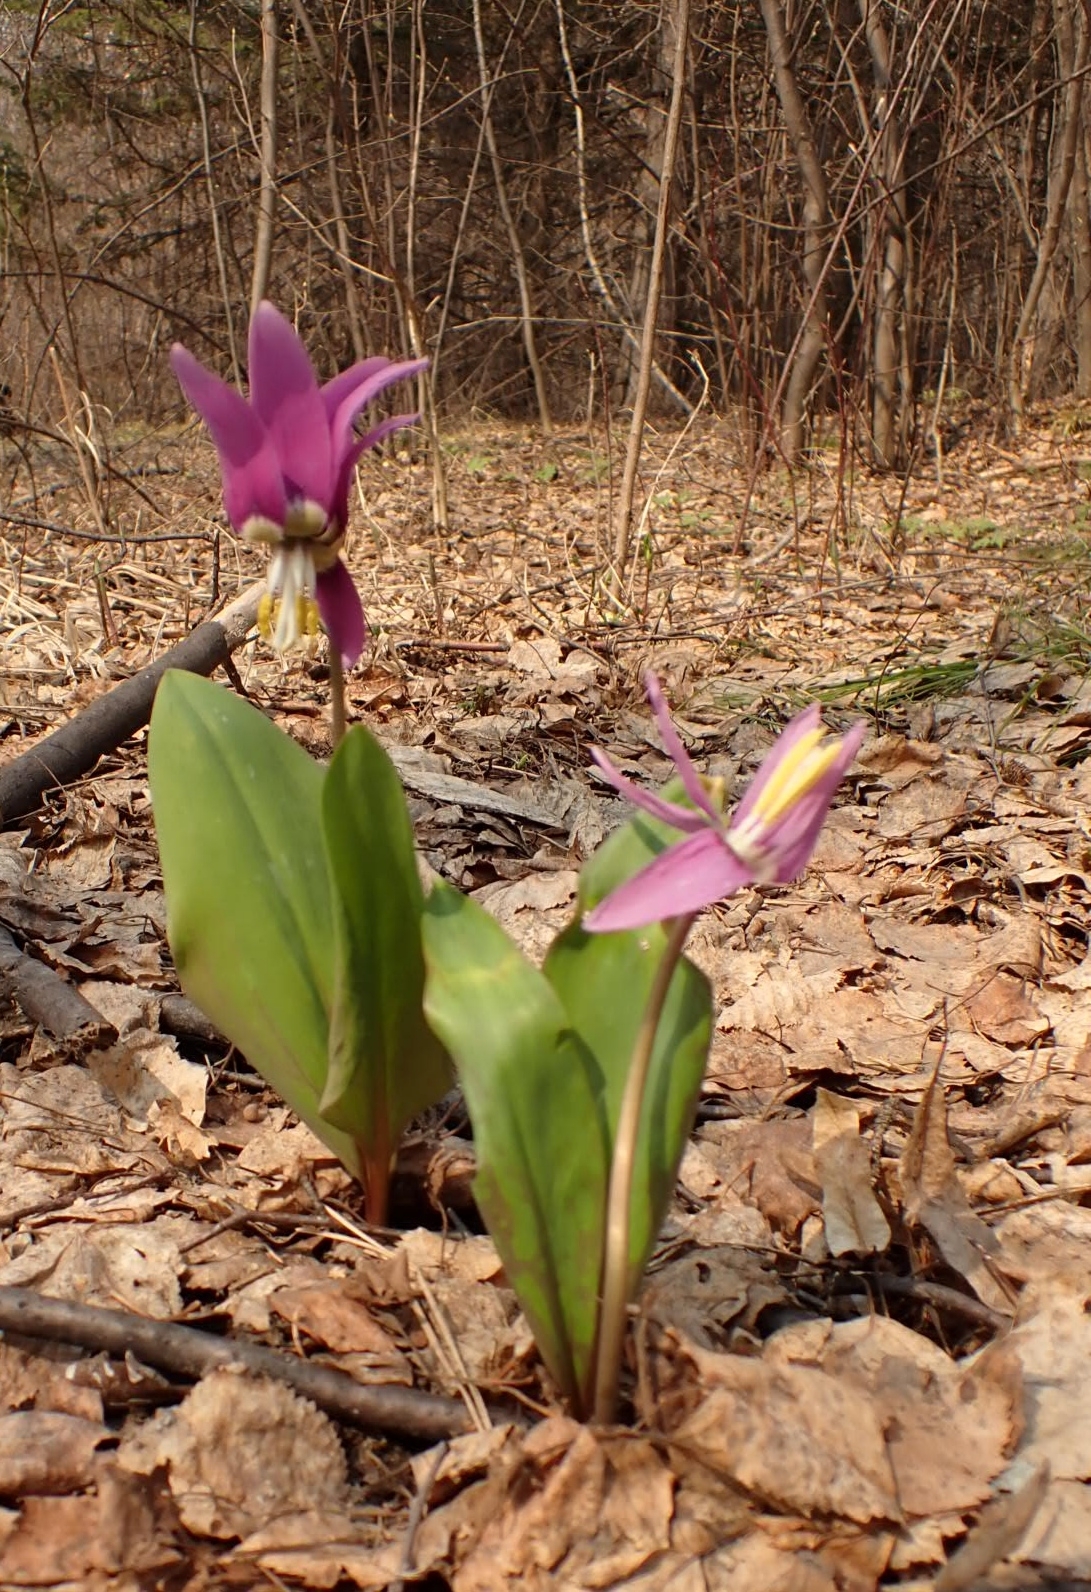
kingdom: Plantae
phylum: Tracheophyta
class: Liliopsida
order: Liliales
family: Liliaceae
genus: Erythronium
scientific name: Erythronium sibiricum
